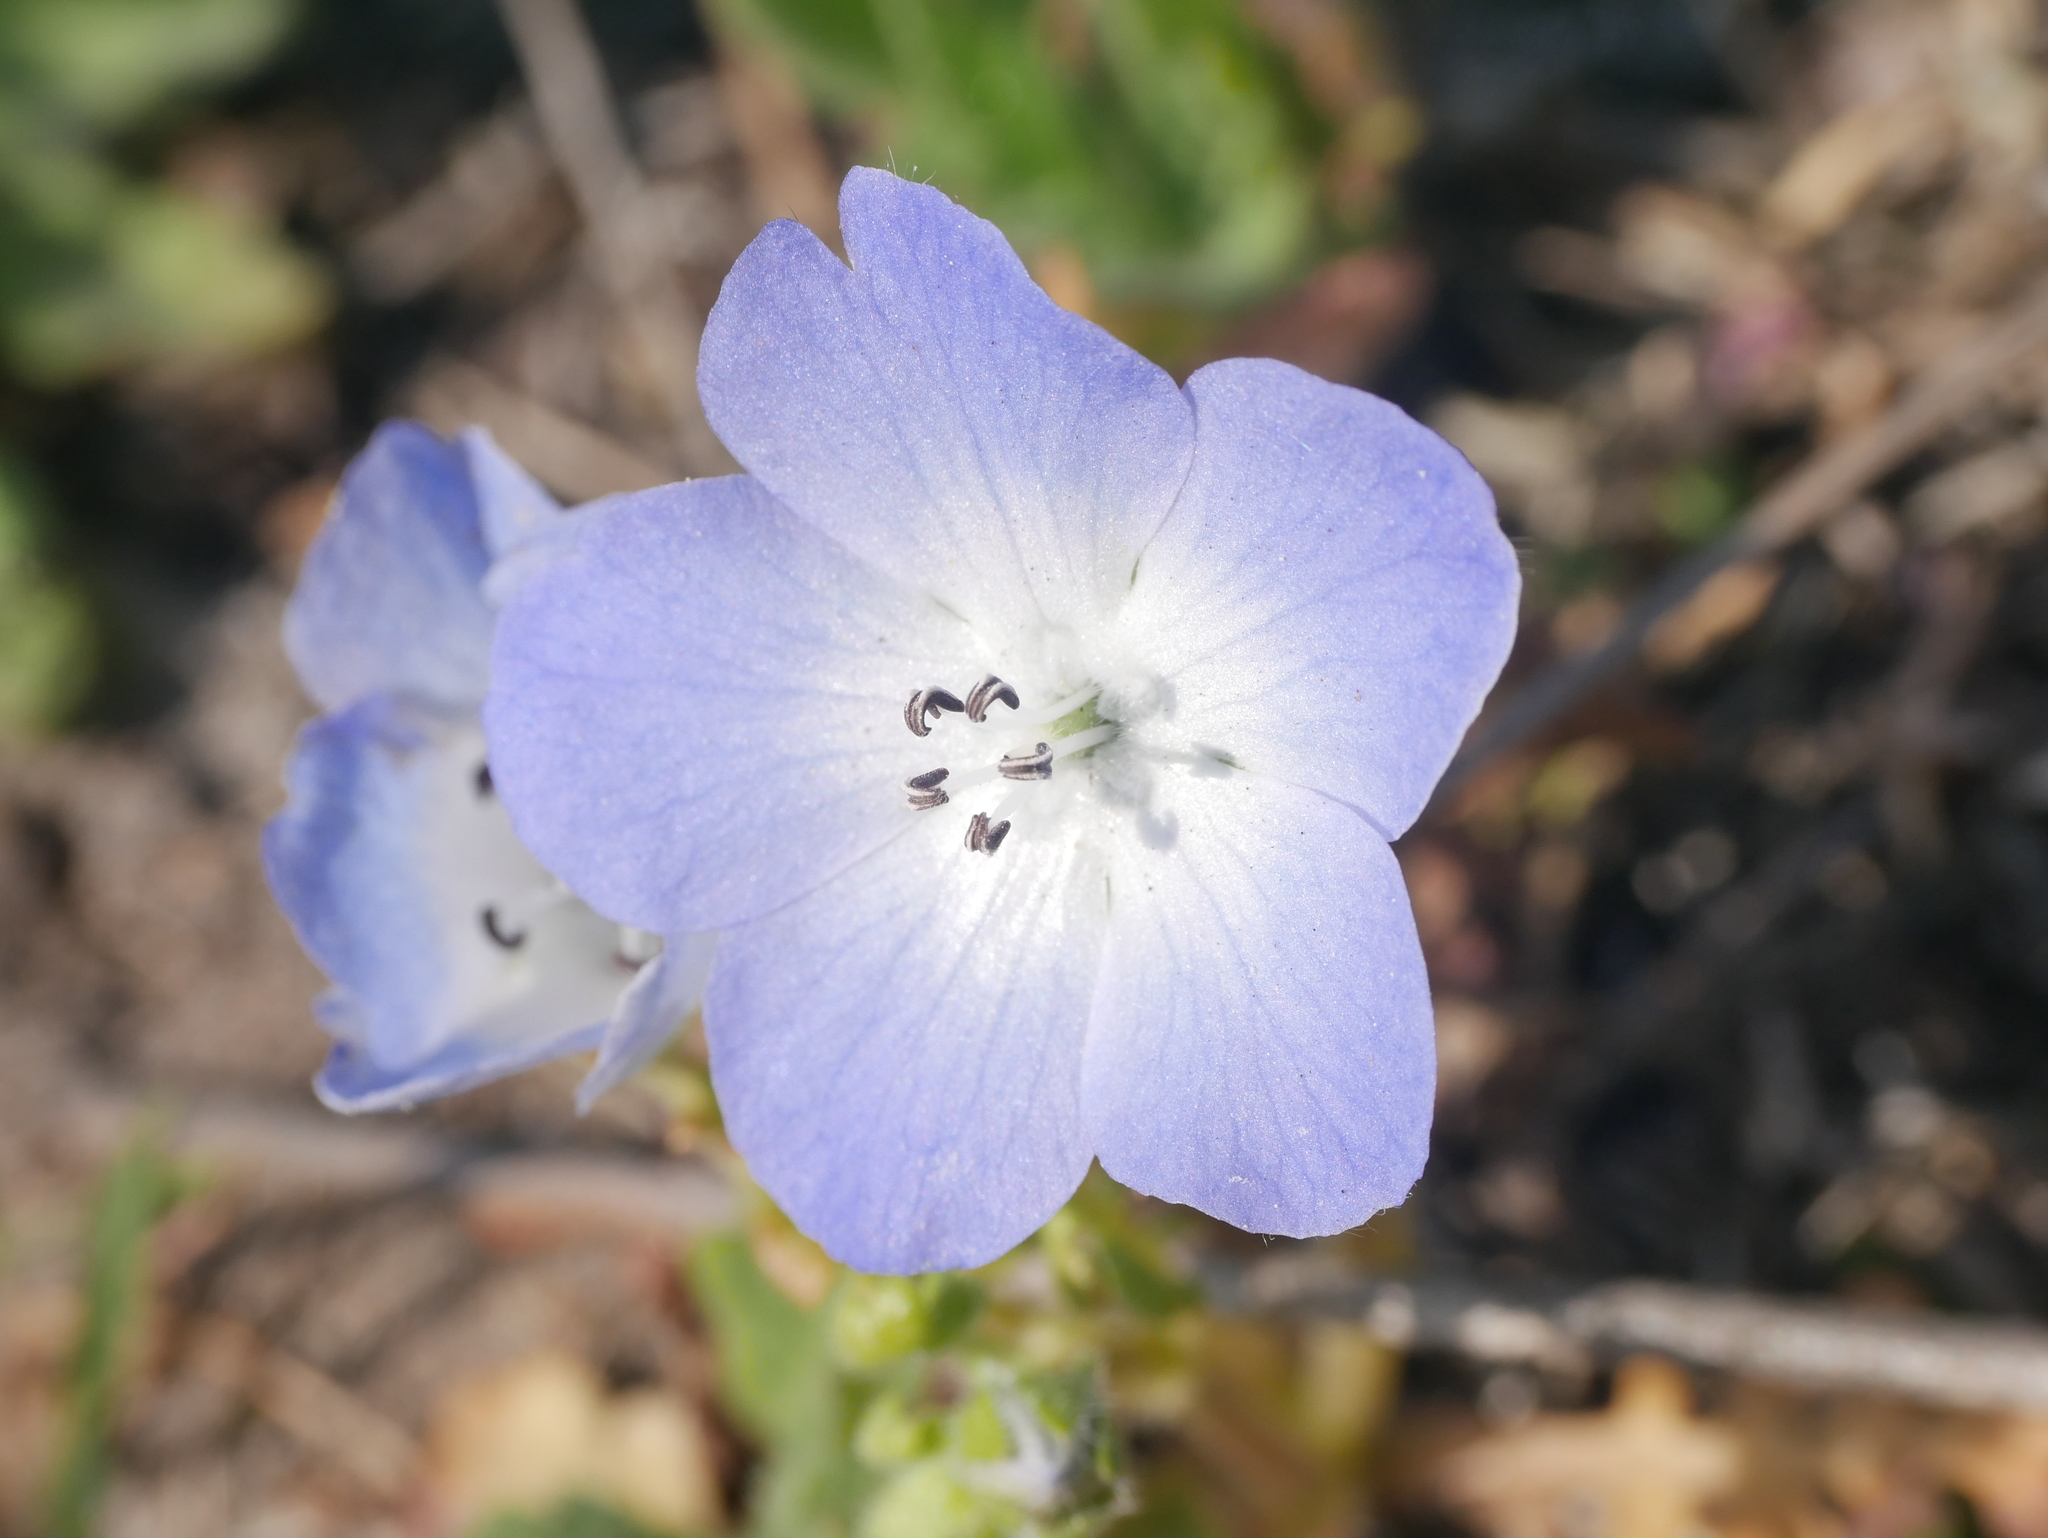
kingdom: Plantae
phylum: Tracheophyta
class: Magnoliopsida
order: Boraginales
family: Hydrophyllaceae
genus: Nemophila
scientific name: Nemophila menziesii
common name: Baby's-blue-eyes
